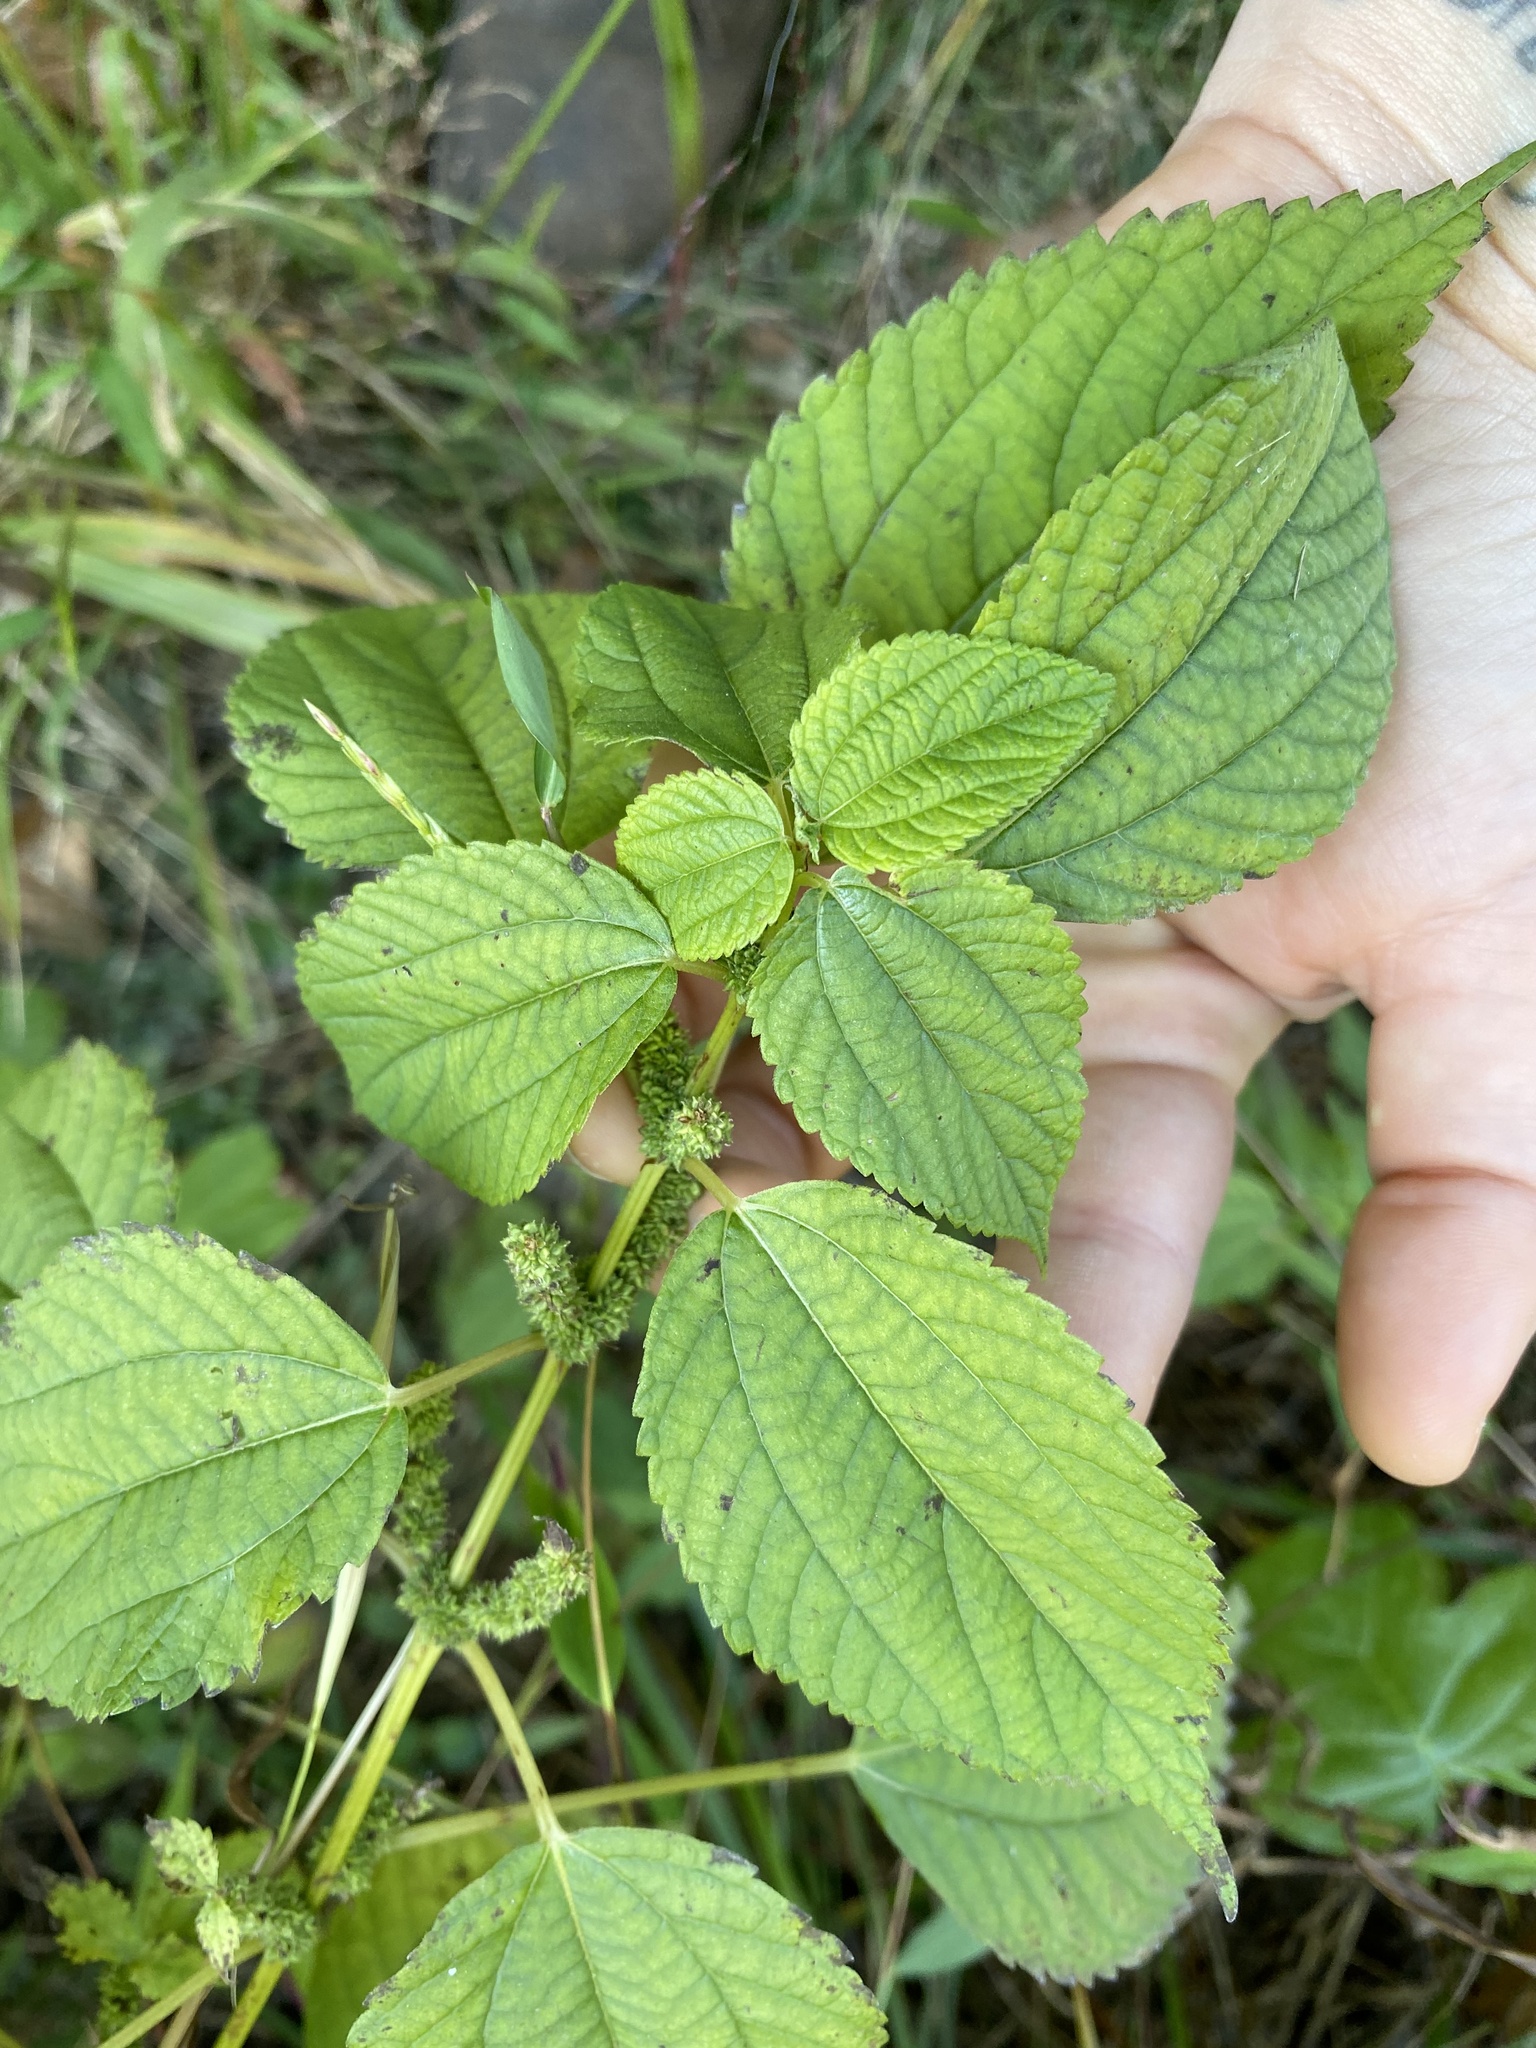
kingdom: Plantae
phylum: Tracheophyta
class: Magnoliopsida
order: Rosales
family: Urticaceae
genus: Boehmeria
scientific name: Boehmeria cylindrica
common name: Bog-hemp
